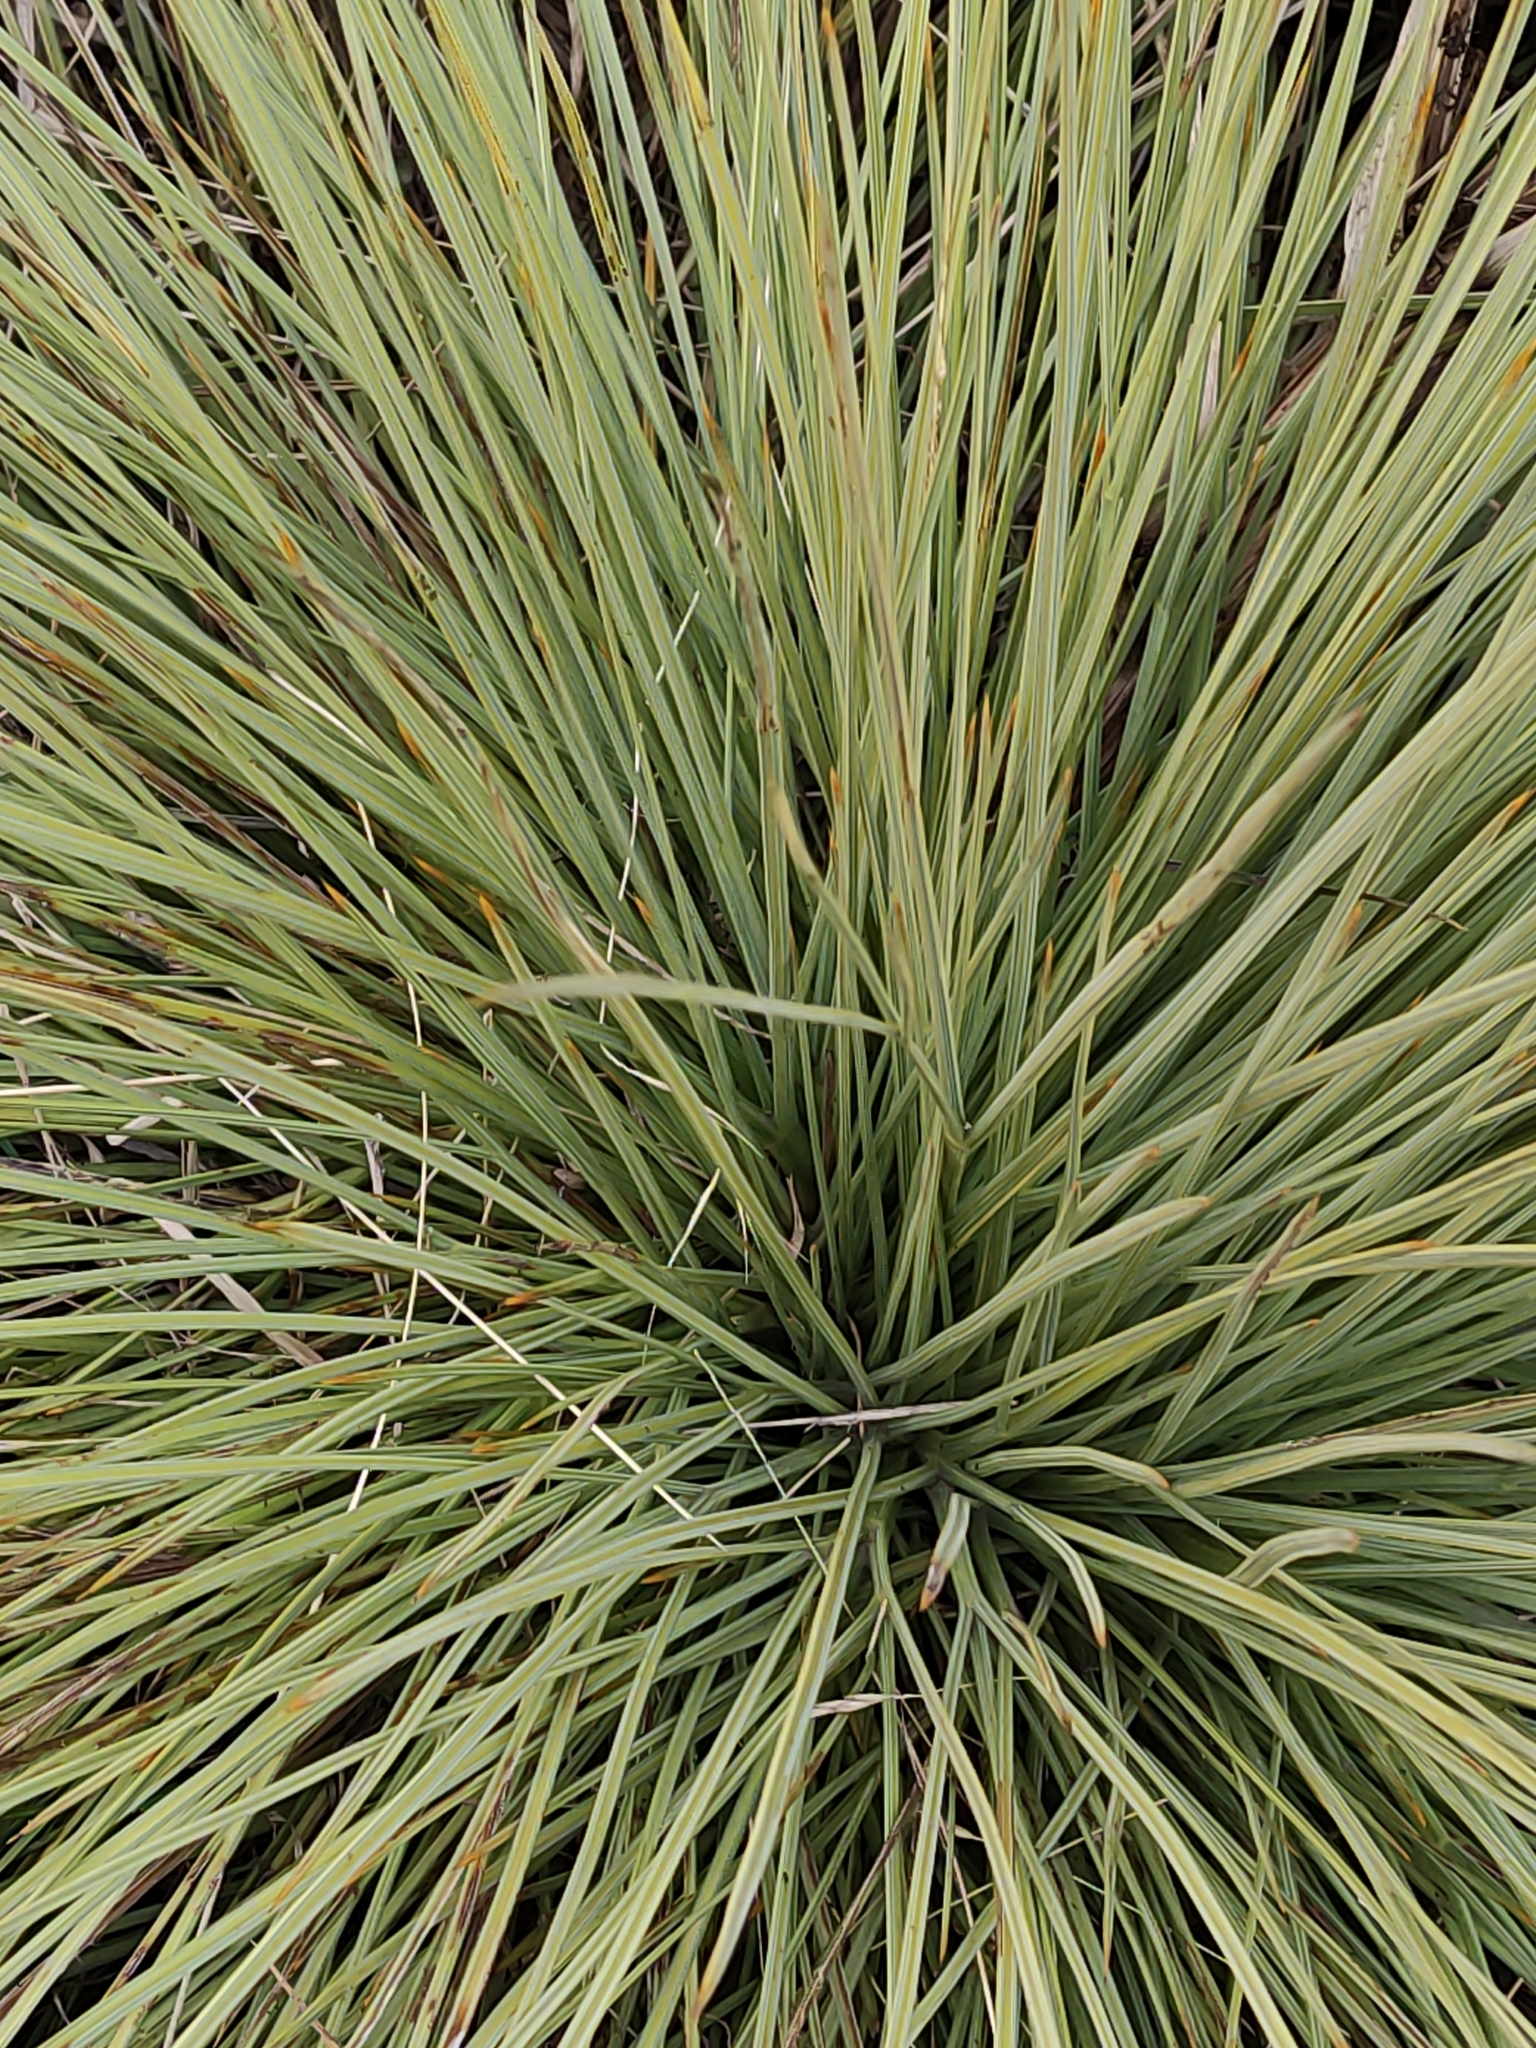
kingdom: Plantae
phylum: Tracheophyta
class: Magnoliopsida
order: Apiales
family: Apiaceae
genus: Aciphylla
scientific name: Aciphylla subflabellata
